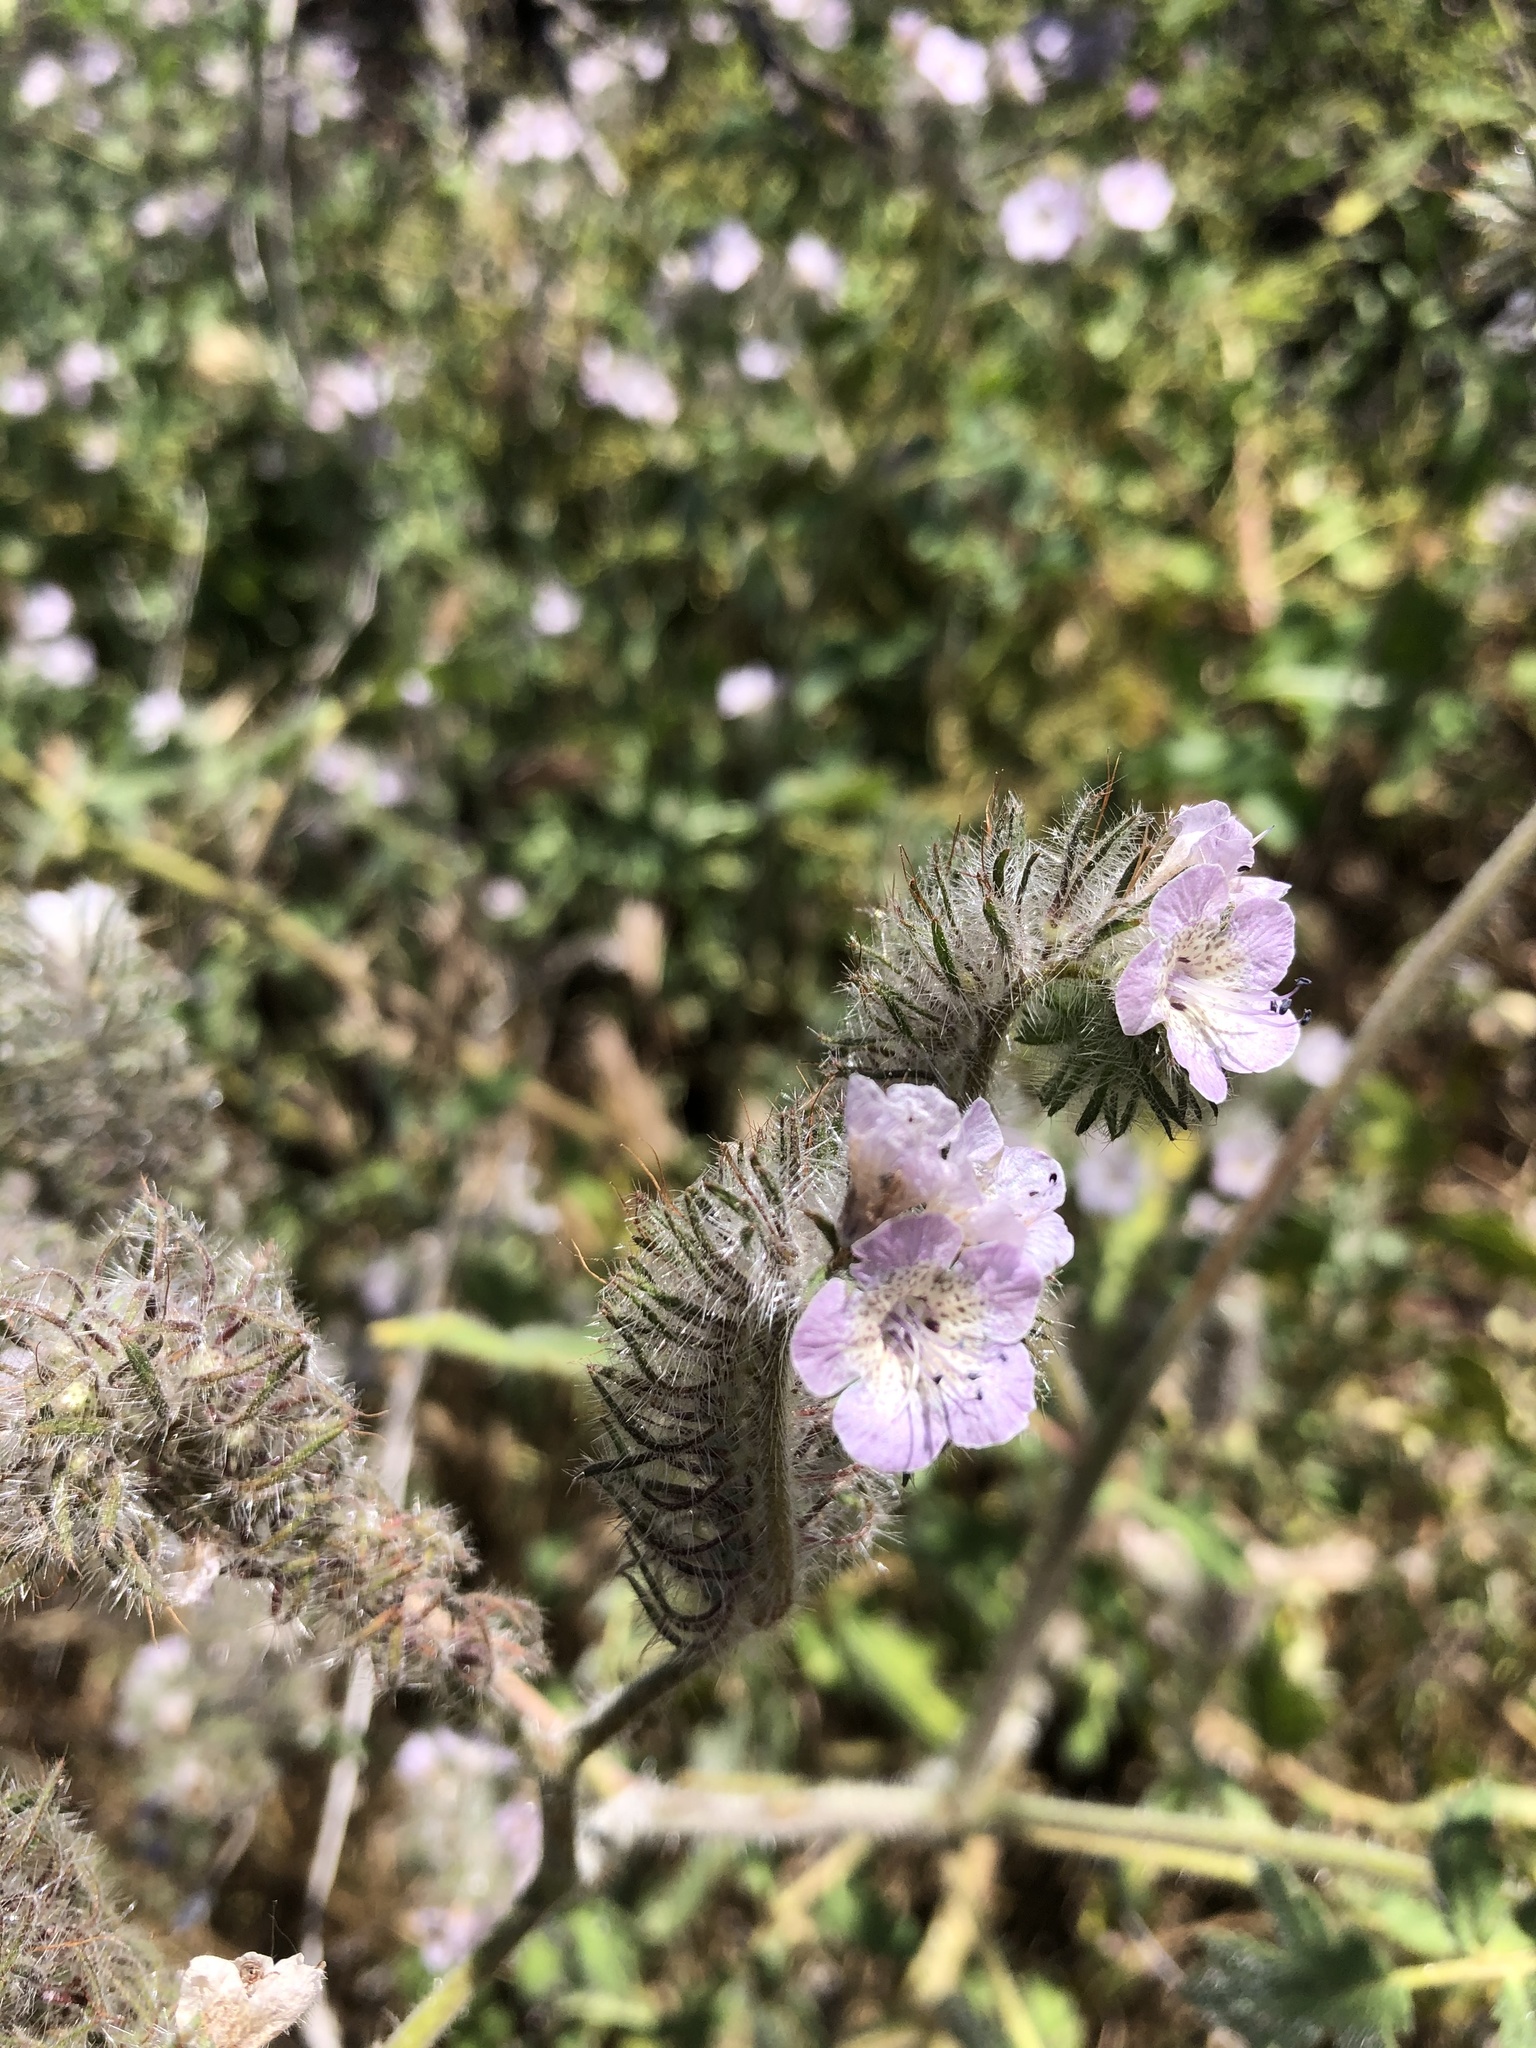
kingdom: Plantae
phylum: Tracheophyta
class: Magnoliopsida
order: Boraginales
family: Hydrophyllaceae
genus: Phacelia
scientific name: Phacelia cicutaria
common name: Caterpillar phacelia
